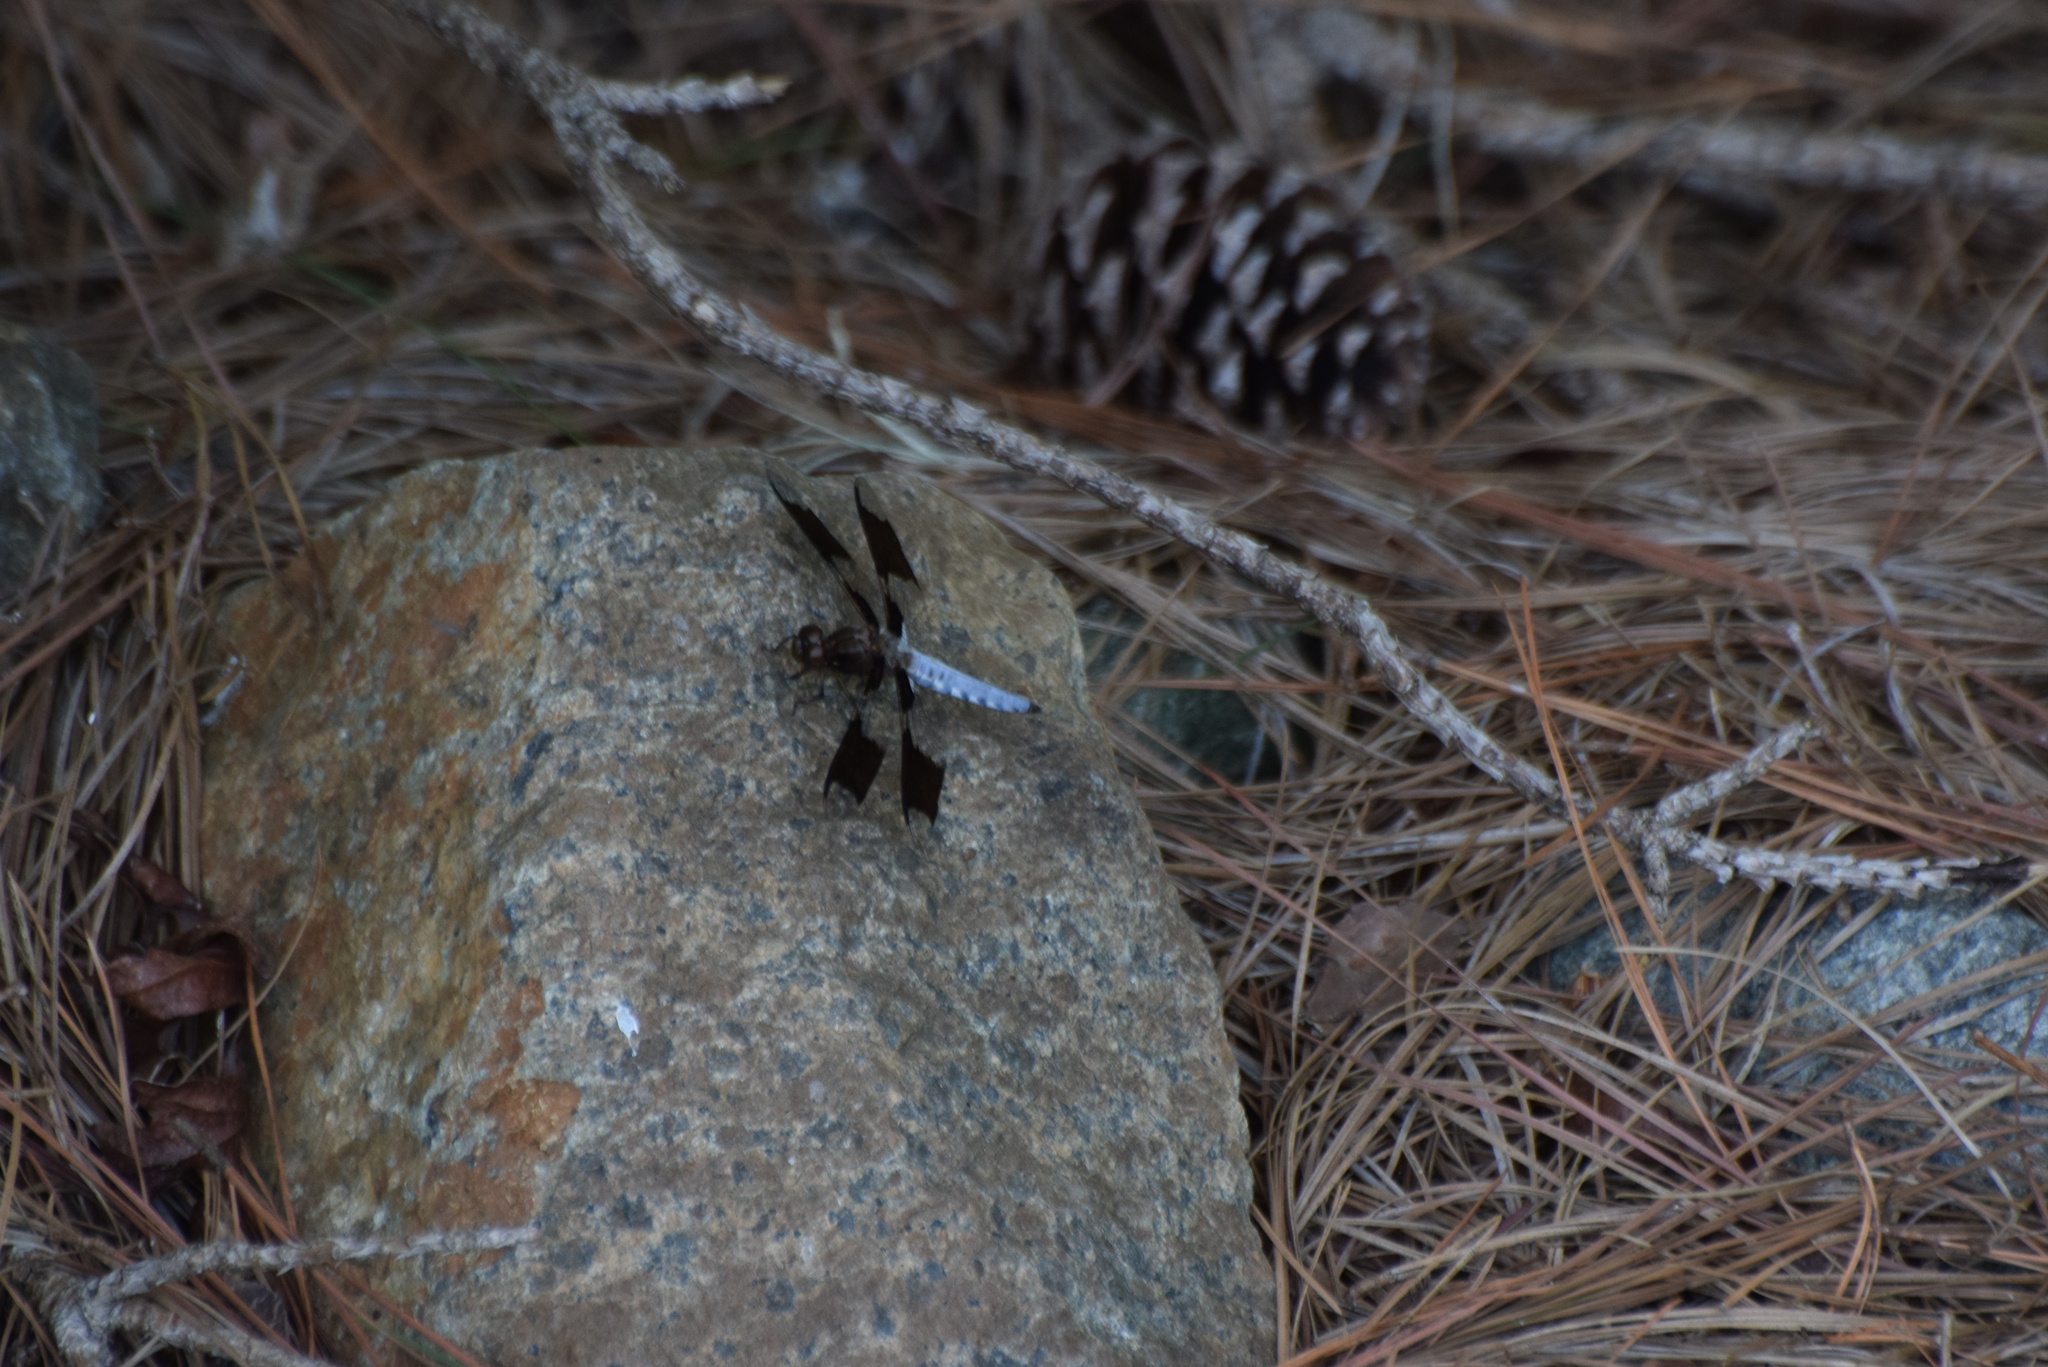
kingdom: Animalia
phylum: Arthropoda
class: Insecta
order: Odonata
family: Libellulidae
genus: Plathemis
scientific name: Plathemis lydia
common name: Common whitetail
